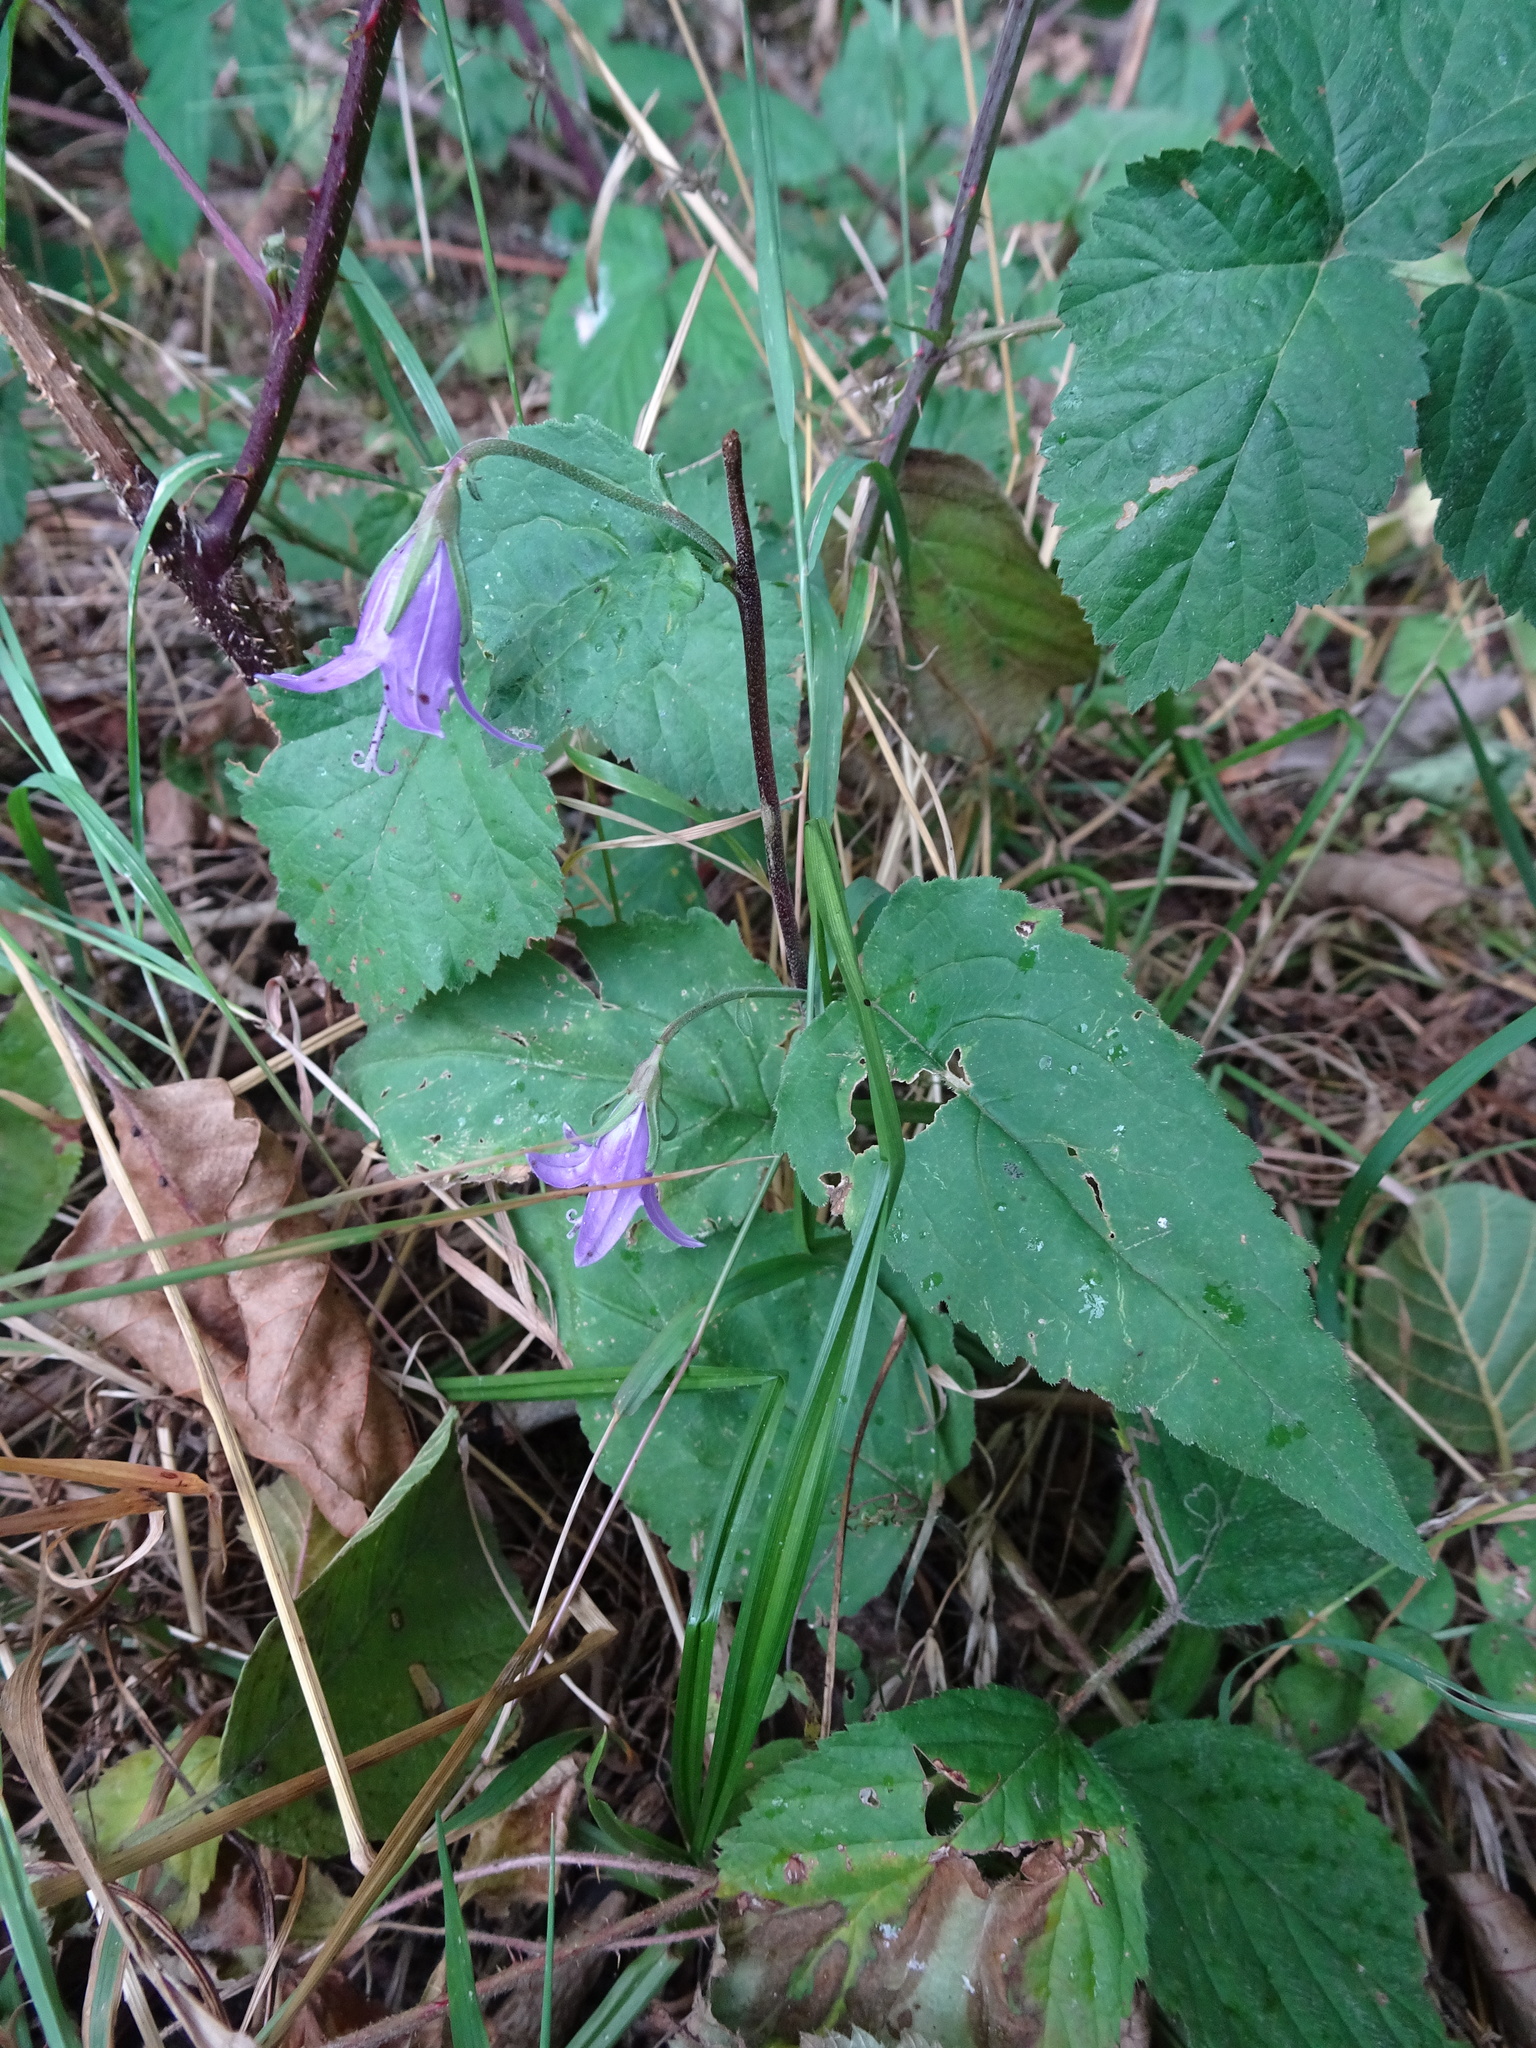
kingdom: Plantae
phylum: Tracheophyta
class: Magnoliopsida
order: Asterales
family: Campanulaceae
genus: Campanula
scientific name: Campanula trachelium
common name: Nettle-leaved bellflower
